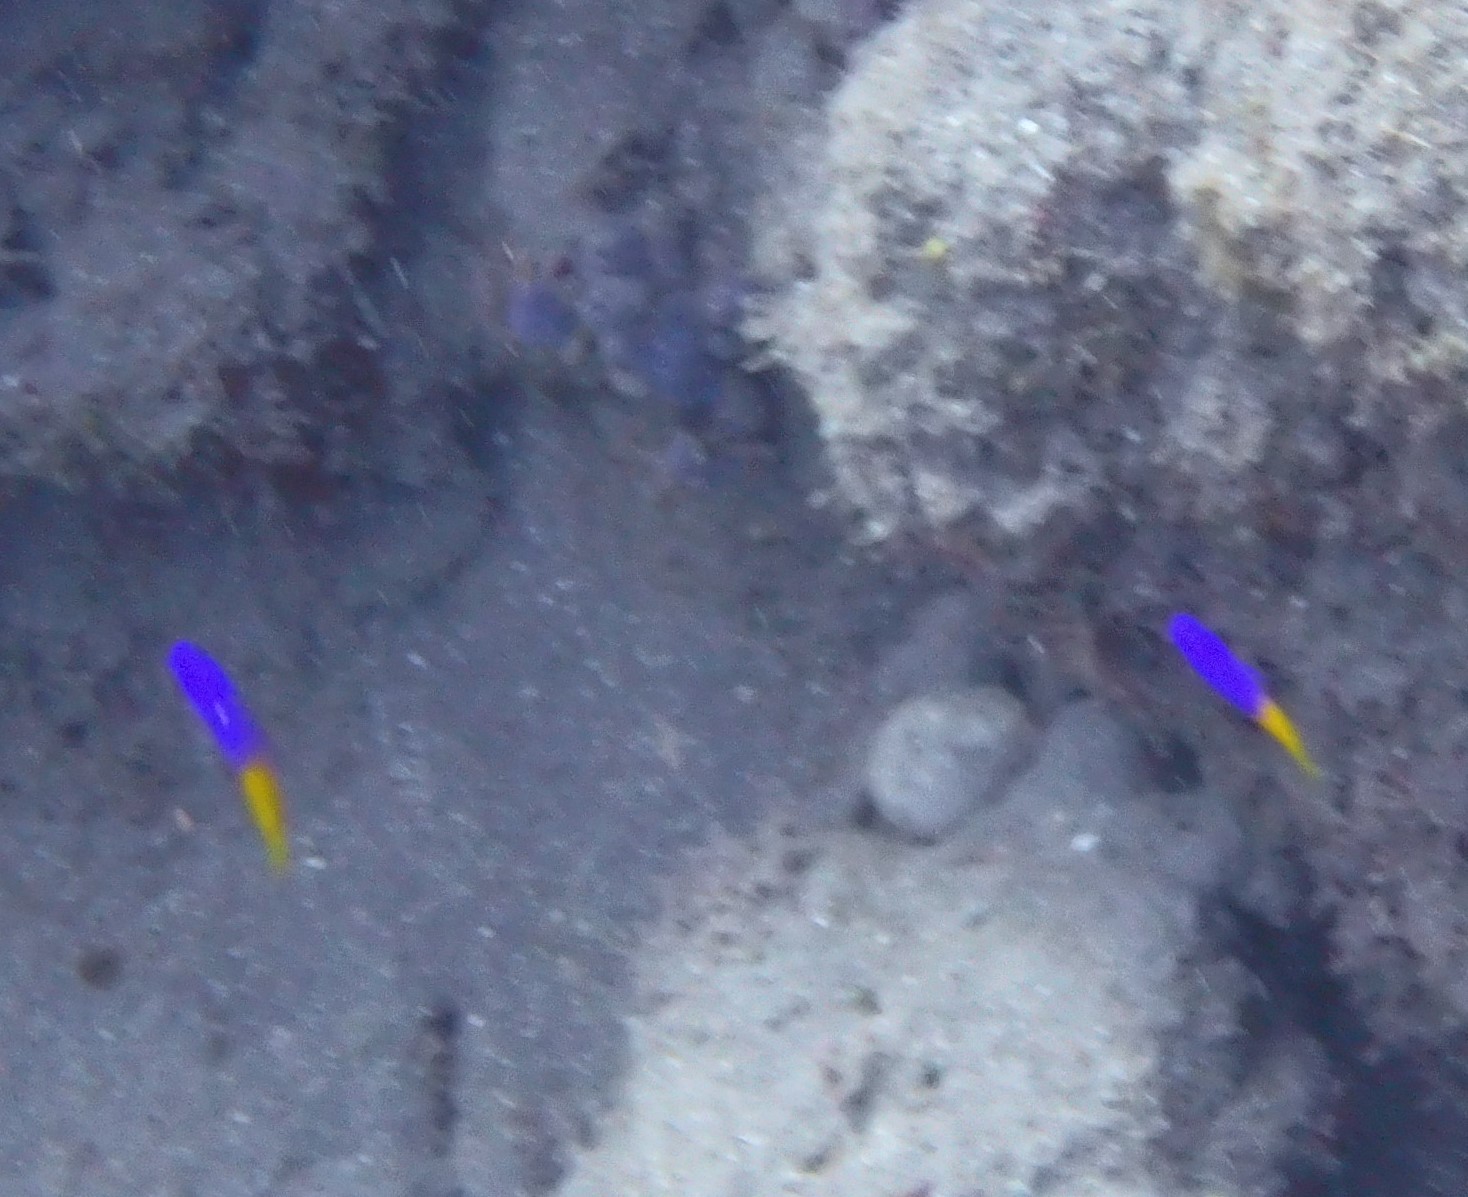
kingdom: Animalia
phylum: Chordata
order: Perciformes
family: Grammatidae
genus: Gramma
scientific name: Gramma loreto
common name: Fairy basslet
